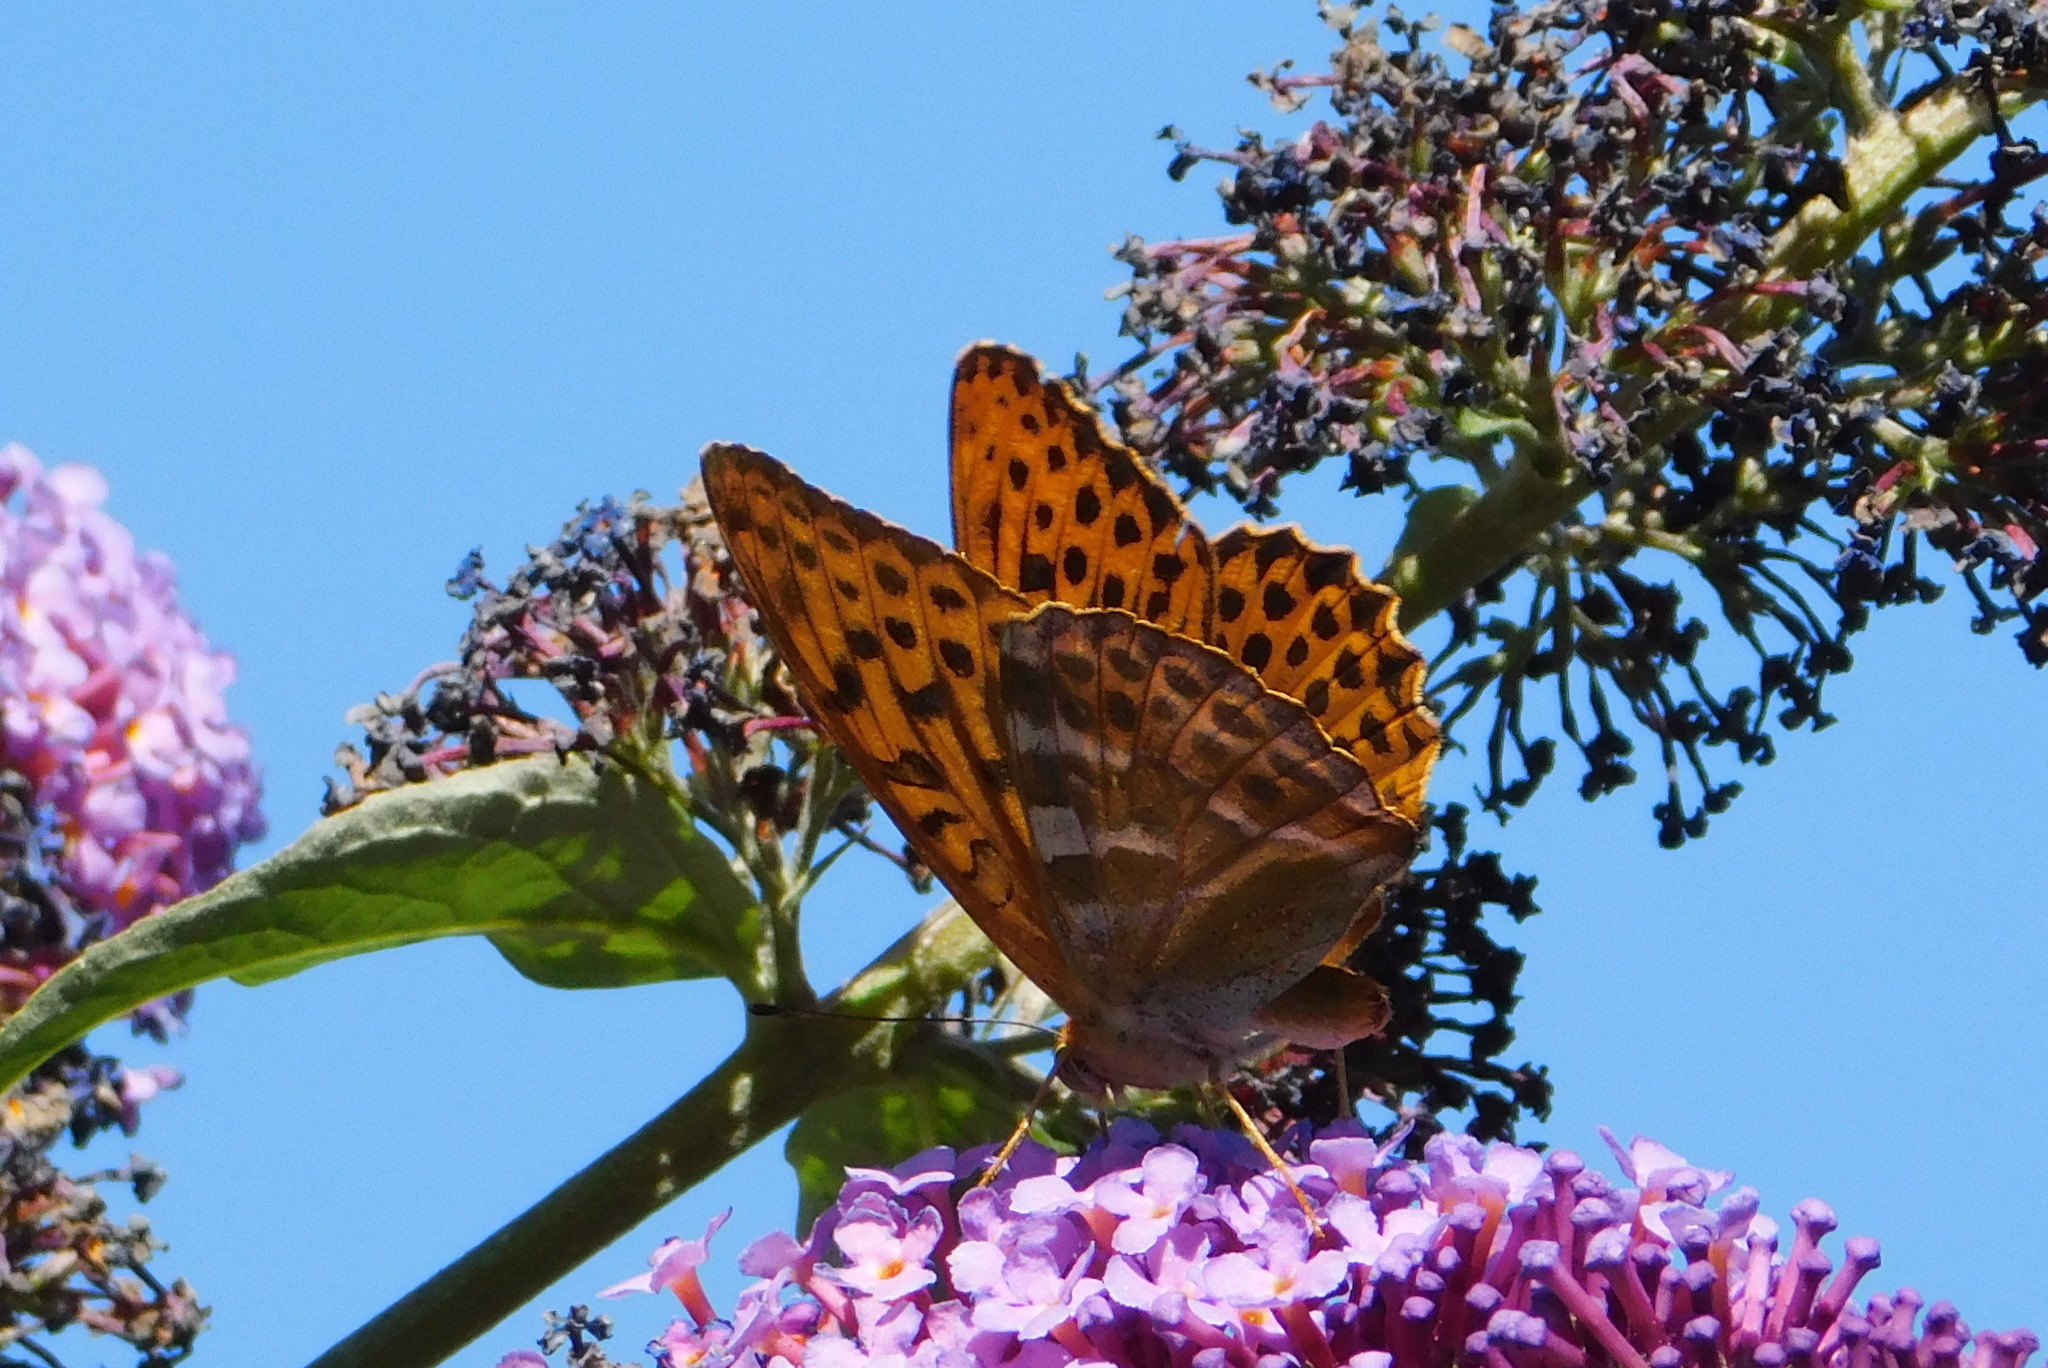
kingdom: Animalia
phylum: Arthropoda
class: Insecta
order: Lepidoptera
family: Nymphalidae
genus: Argynnis
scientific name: Argynnis paphia
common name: Silver-washed fritillary
